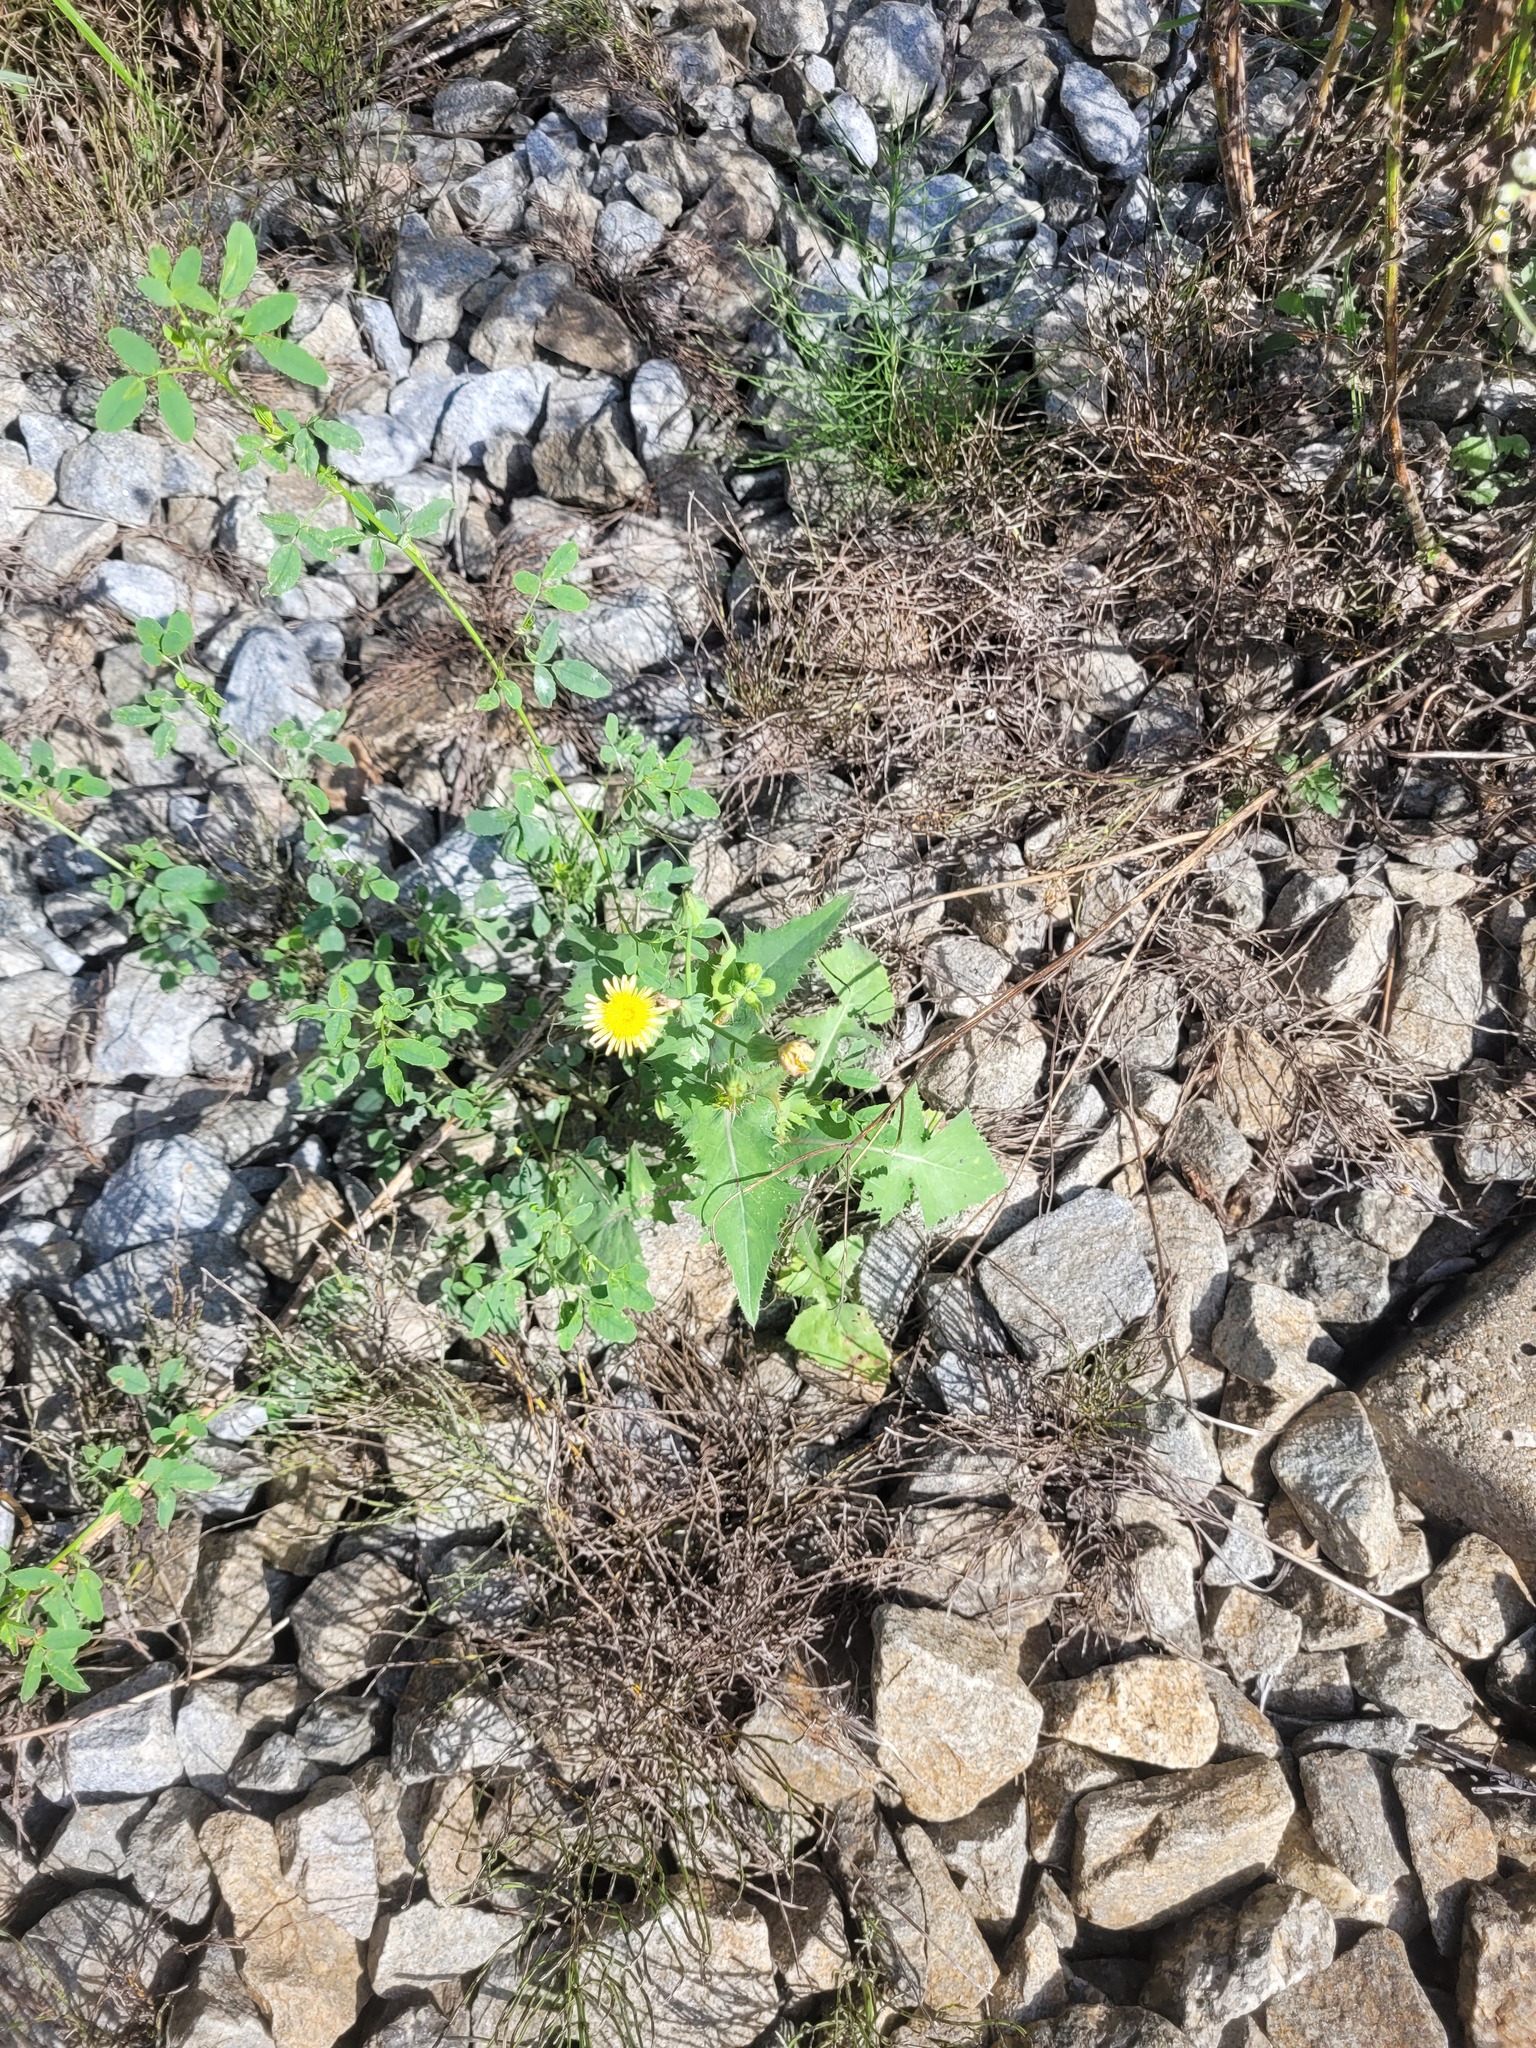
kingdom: Plantae
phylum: Tracheophyta
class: Magnoliopsida
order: Asterales
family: Asteraceae
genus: Sonchus
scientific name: Sonchus oleraceus
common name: Common sowthistle
